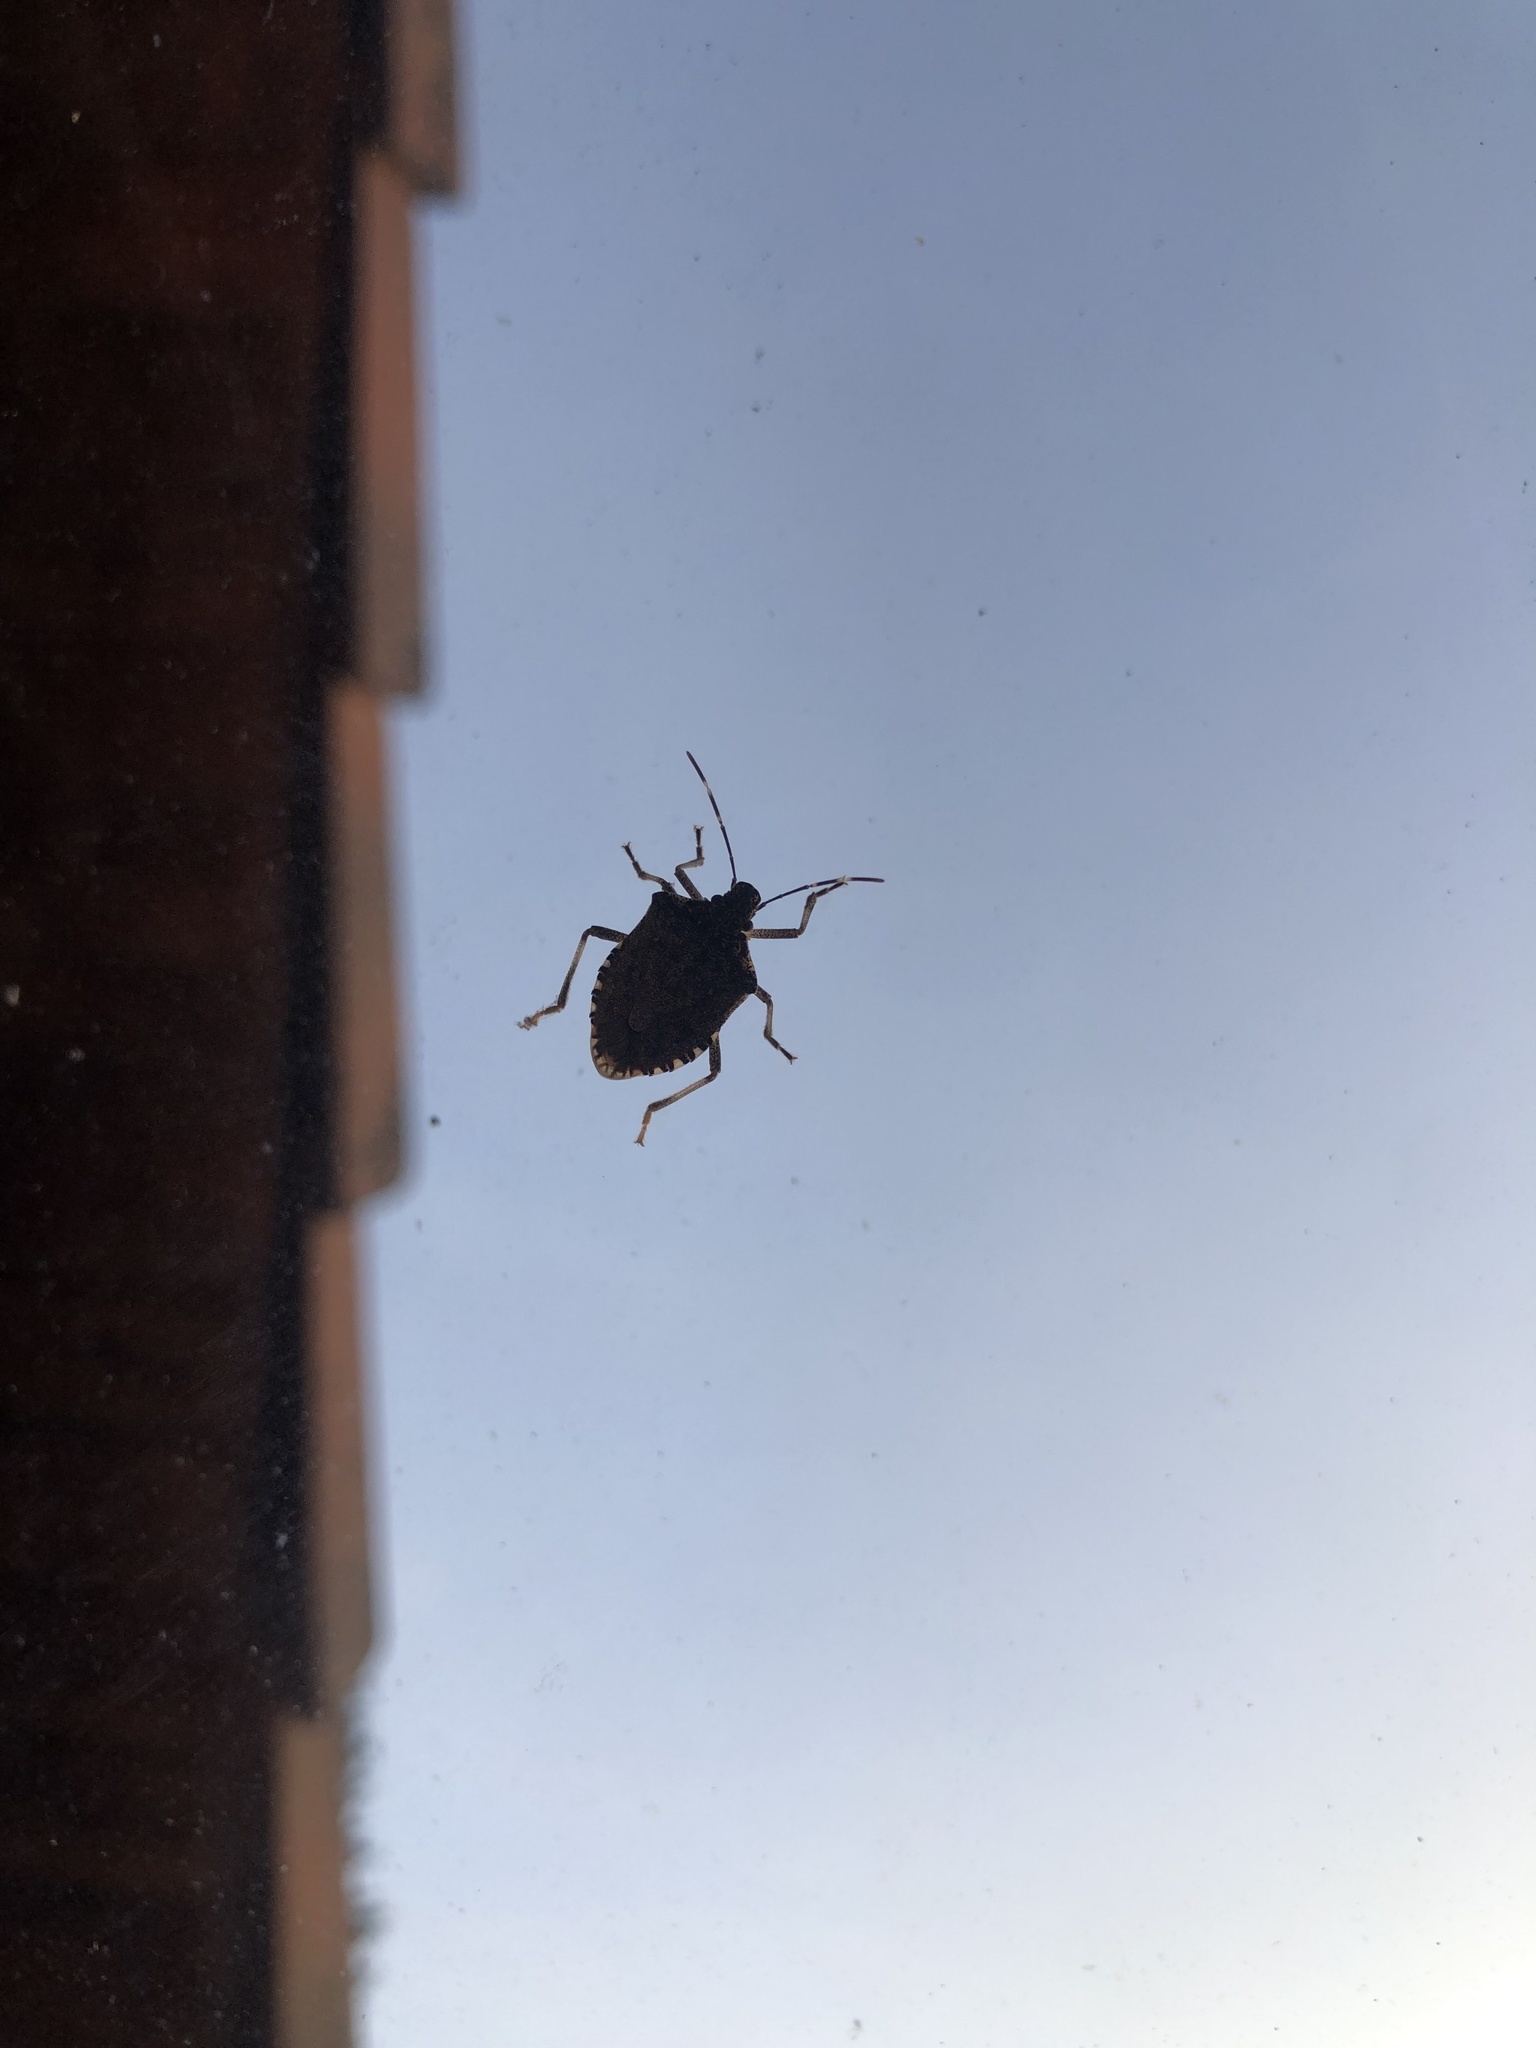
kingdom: Animalia
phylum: Arthropoda
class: Insecta
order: Hemiptera
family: Pentatomidae
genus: Halyomorpha
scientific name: Halyomorpha halys
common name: Brown marmorated stink bug
